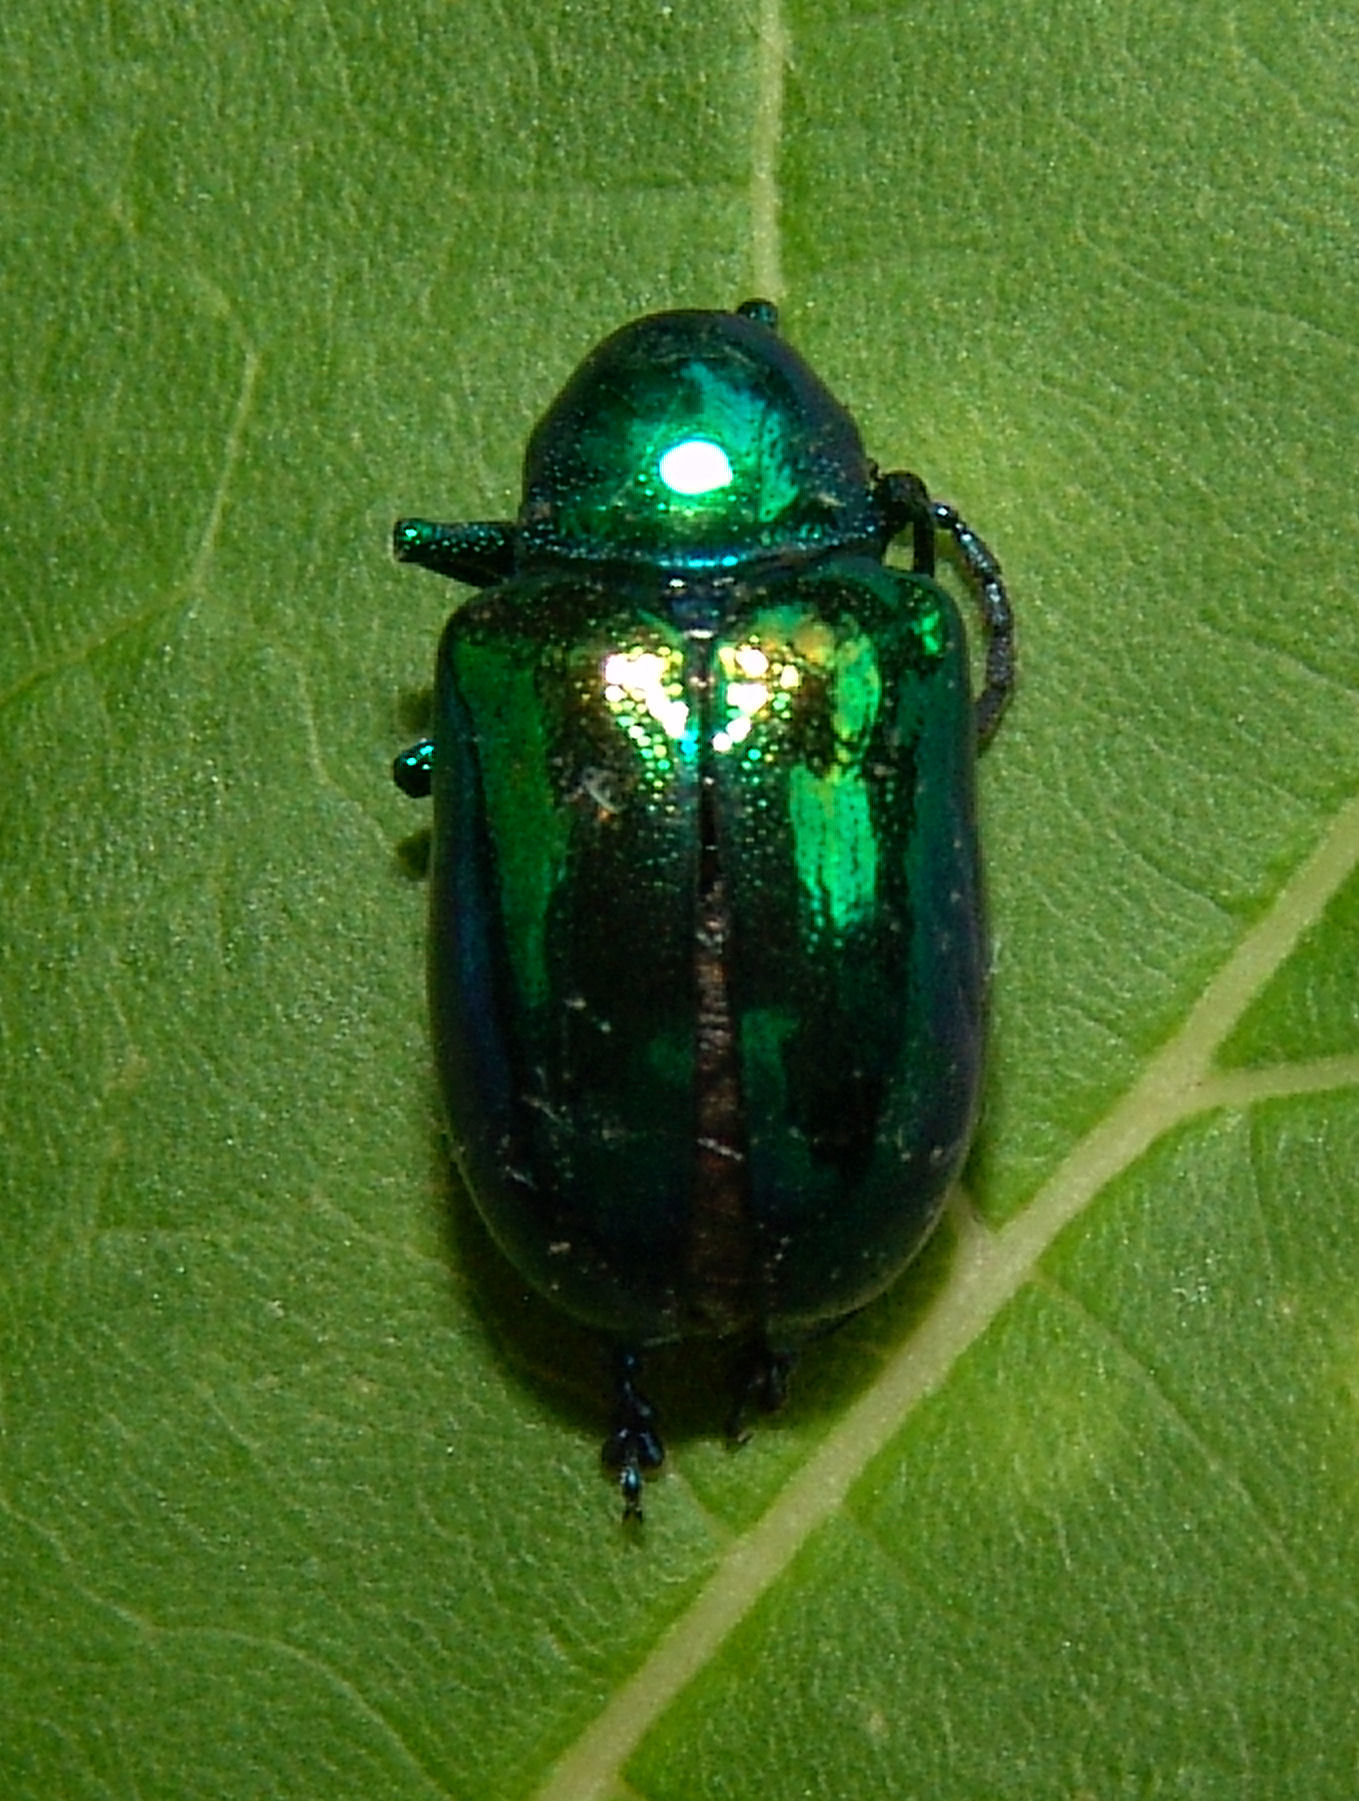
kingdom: Animalia
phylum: Arthropoda
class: Insecta
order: Coleoptera
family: Chrysomelidae
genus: Chrysochus
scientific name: Chrysochus auratus
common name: Dogbane leaf beetle
